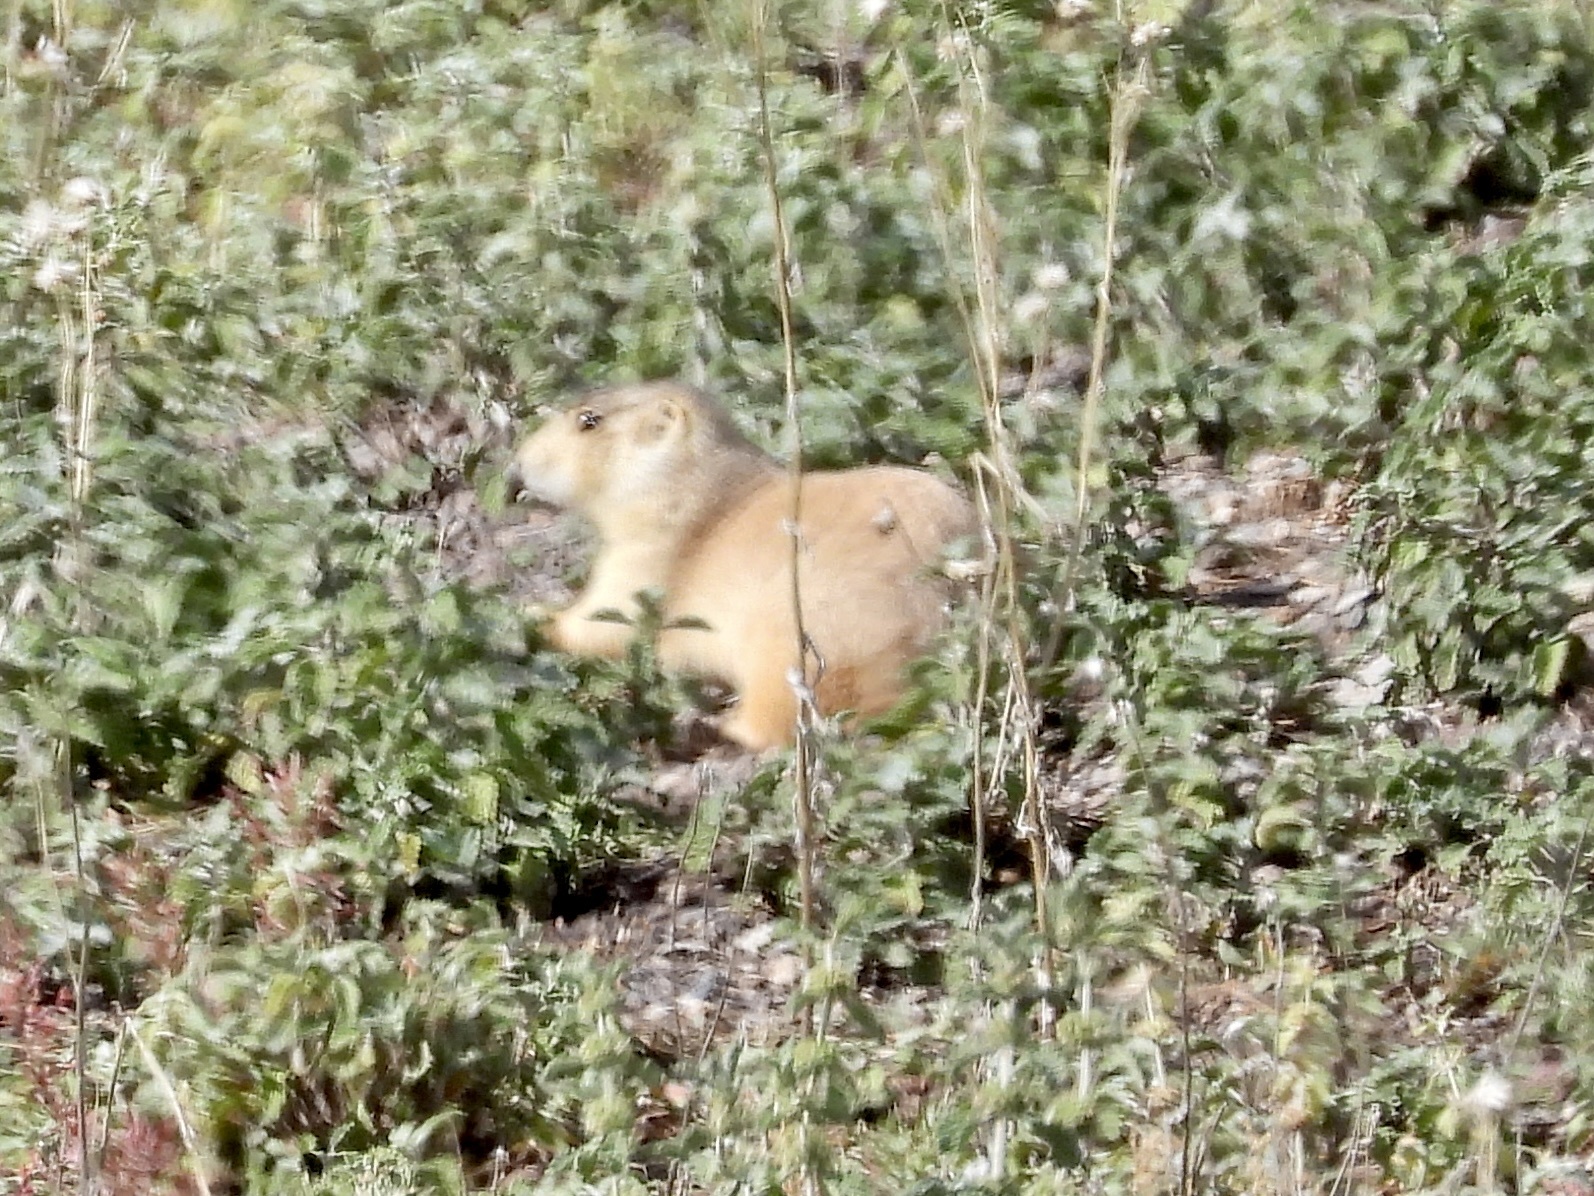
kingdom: Animalia
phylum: Chordata
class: Mammalia
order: Rodentia
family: Sciuridae
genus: Cynomys
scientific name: Cynomys gunnisoni
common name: Gunnison's prairie dog
